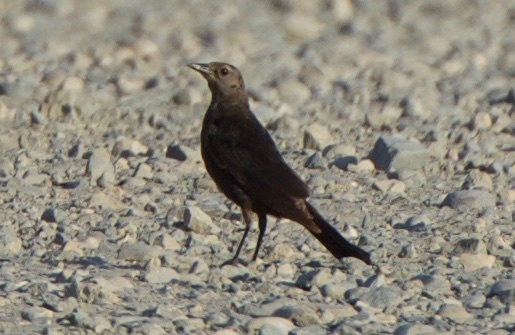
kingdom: Animalia
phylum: Chordata
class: Aves
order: Passeriformes
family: Icteridae
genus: Euphagus
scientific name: Euphagus cyanocephalus
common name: Brewer's blackbird
